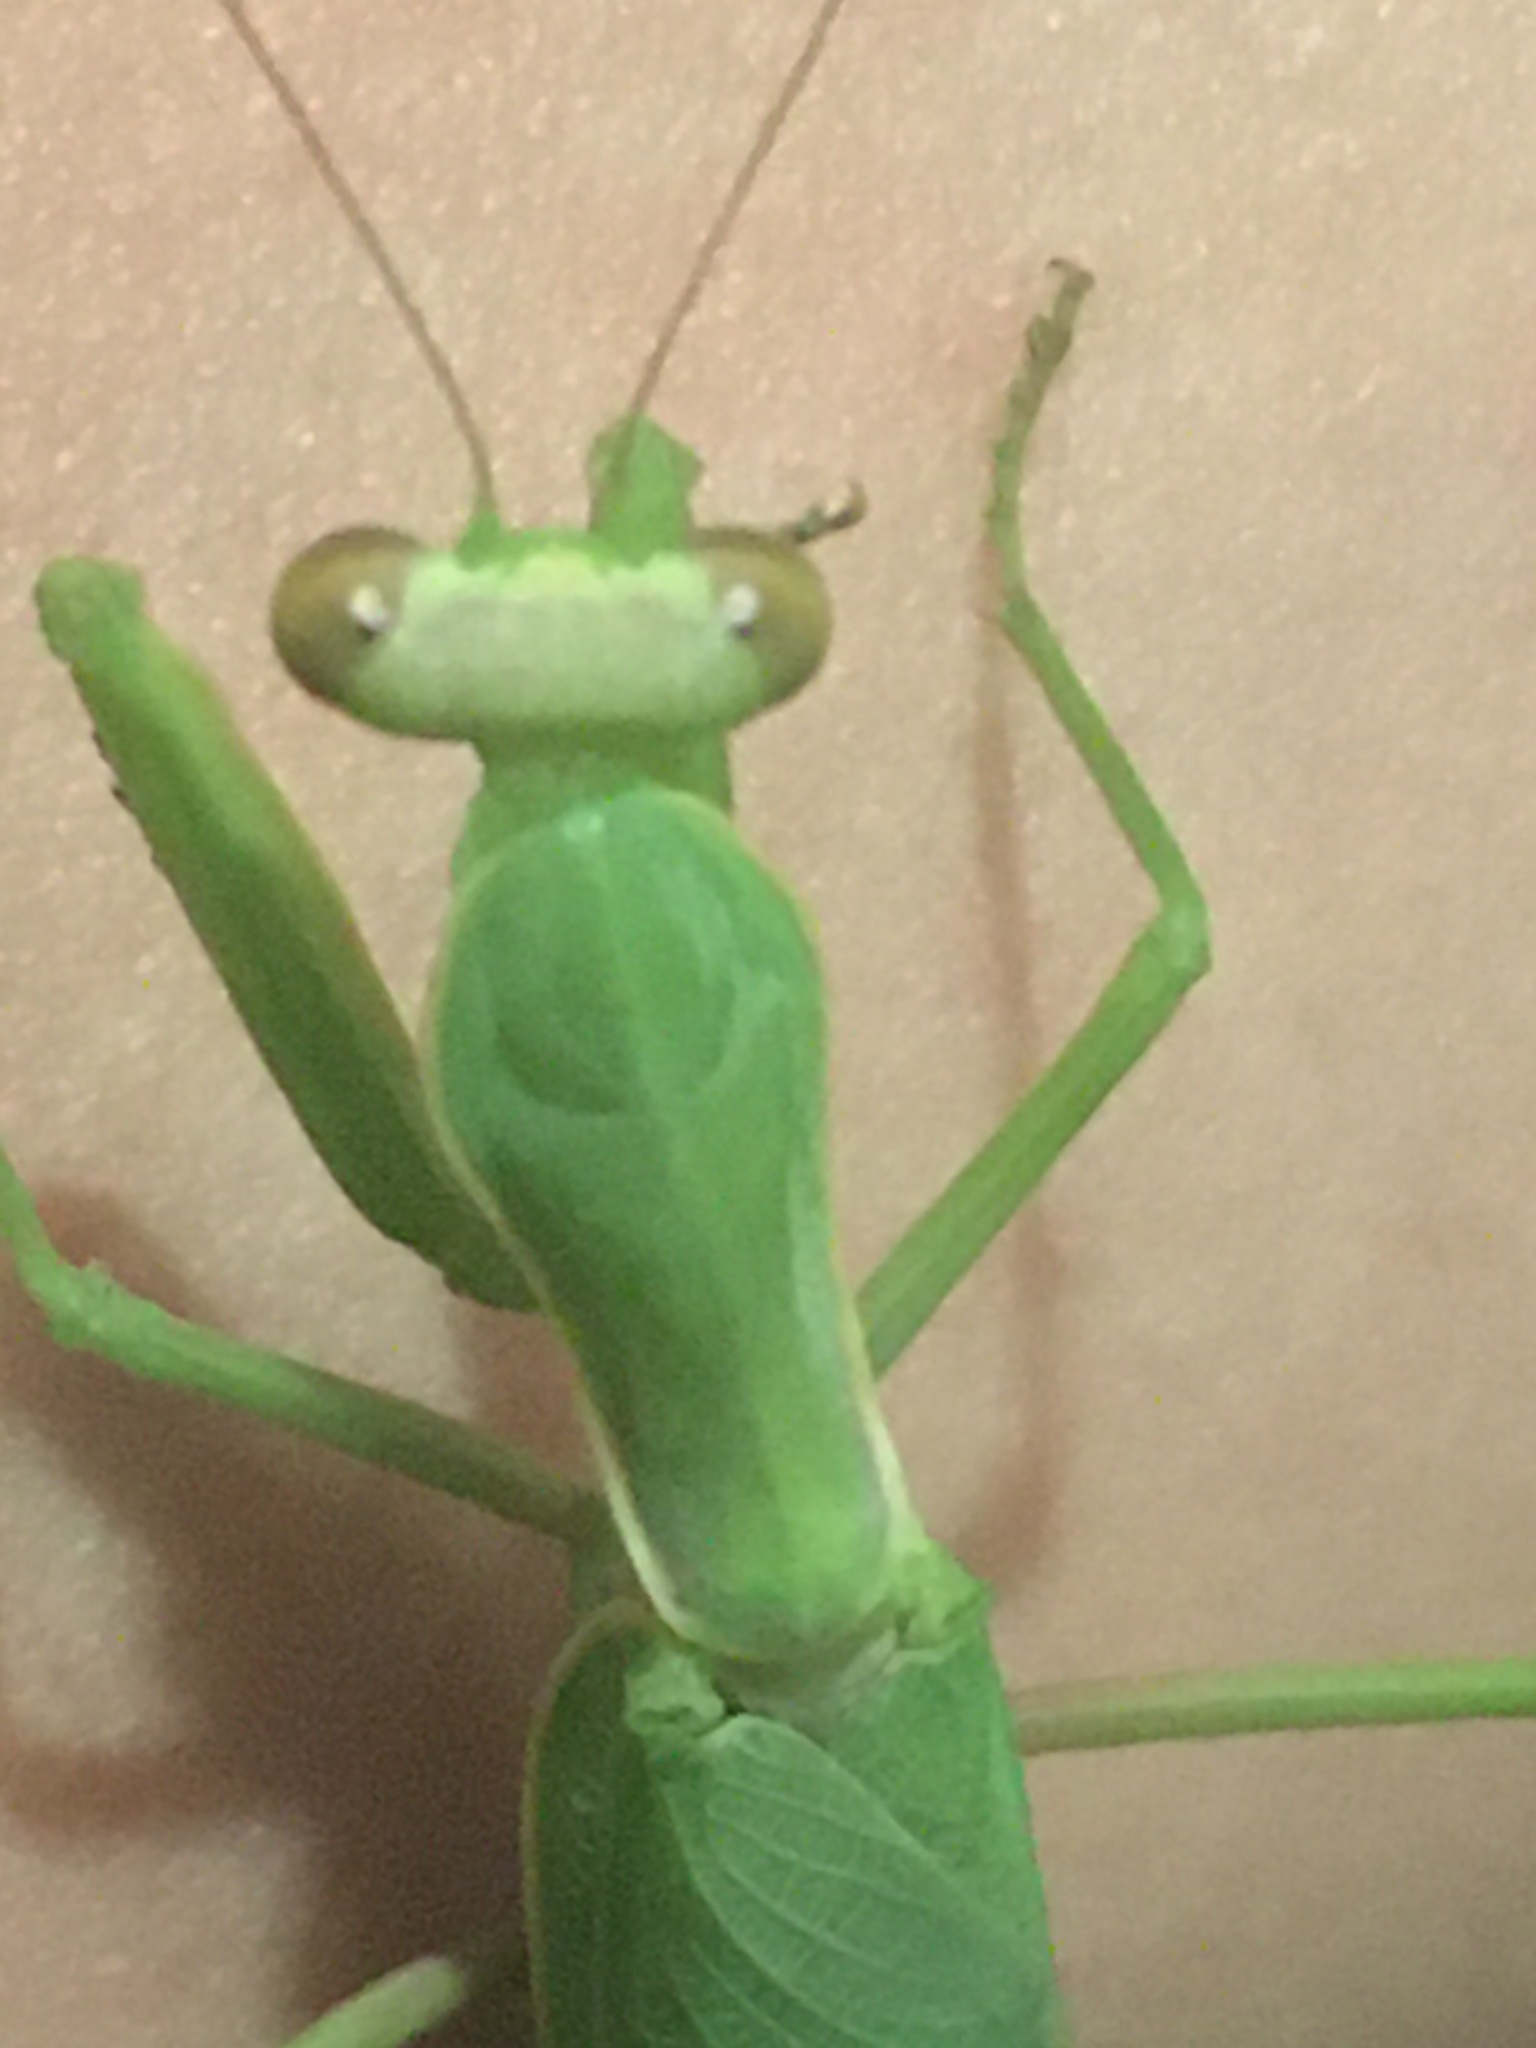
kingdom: Animalia
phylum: Arthropoda
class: Insecta
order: Mantodea
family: Mantidae
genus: Hierodula
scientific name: Hierodula transcaucasica
